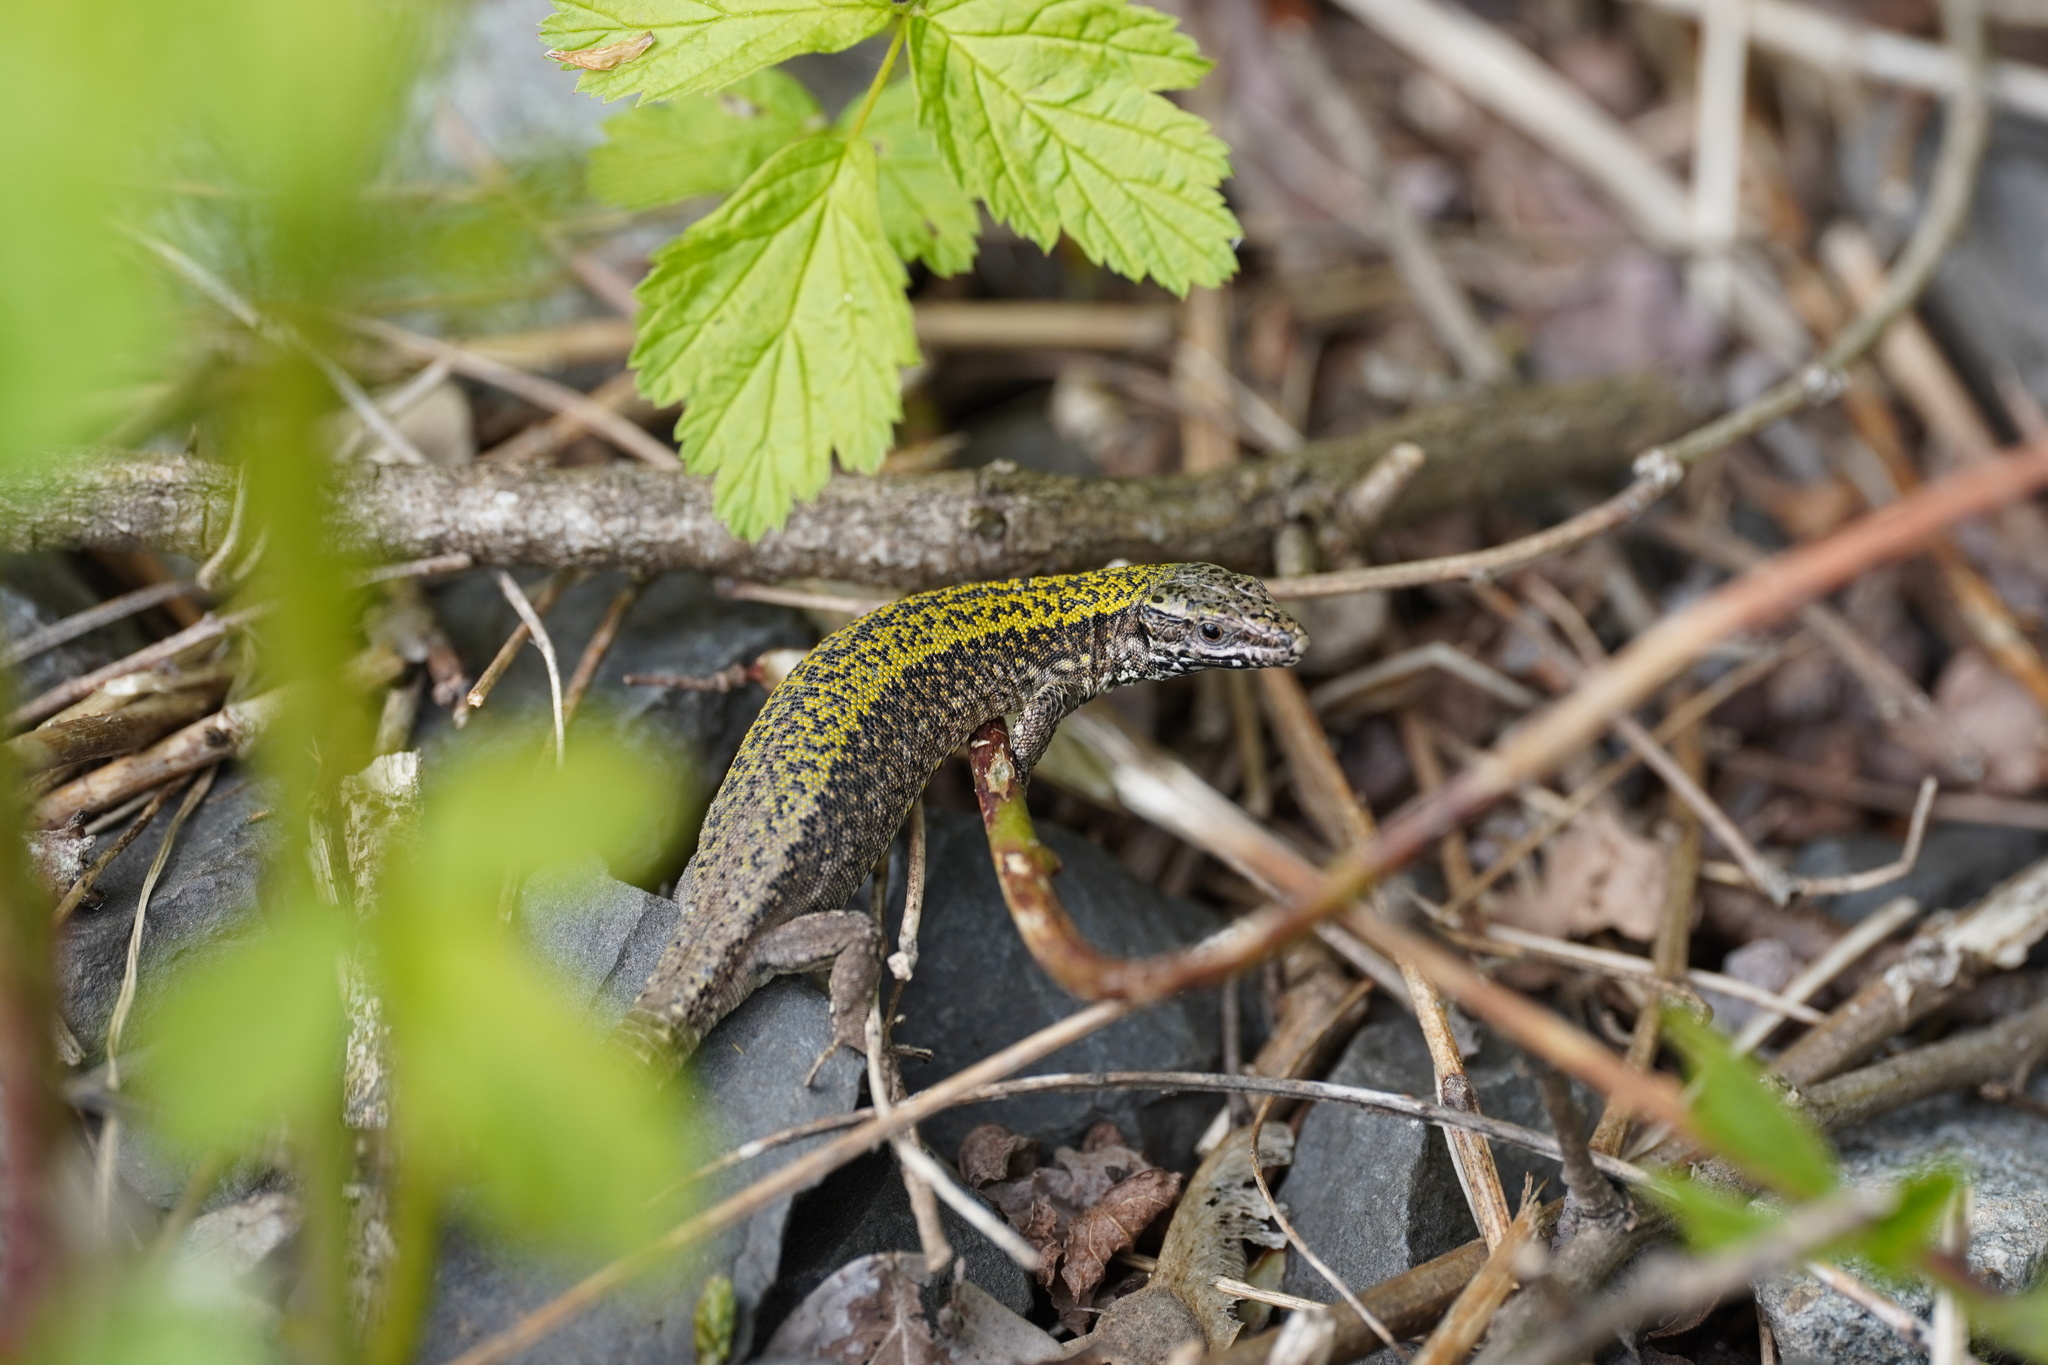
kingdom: Animalia
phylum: Chordata
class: Squamata
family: Lacertidae
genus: Podarcis
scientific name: Podarcis muralis
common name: Common wall lizard
